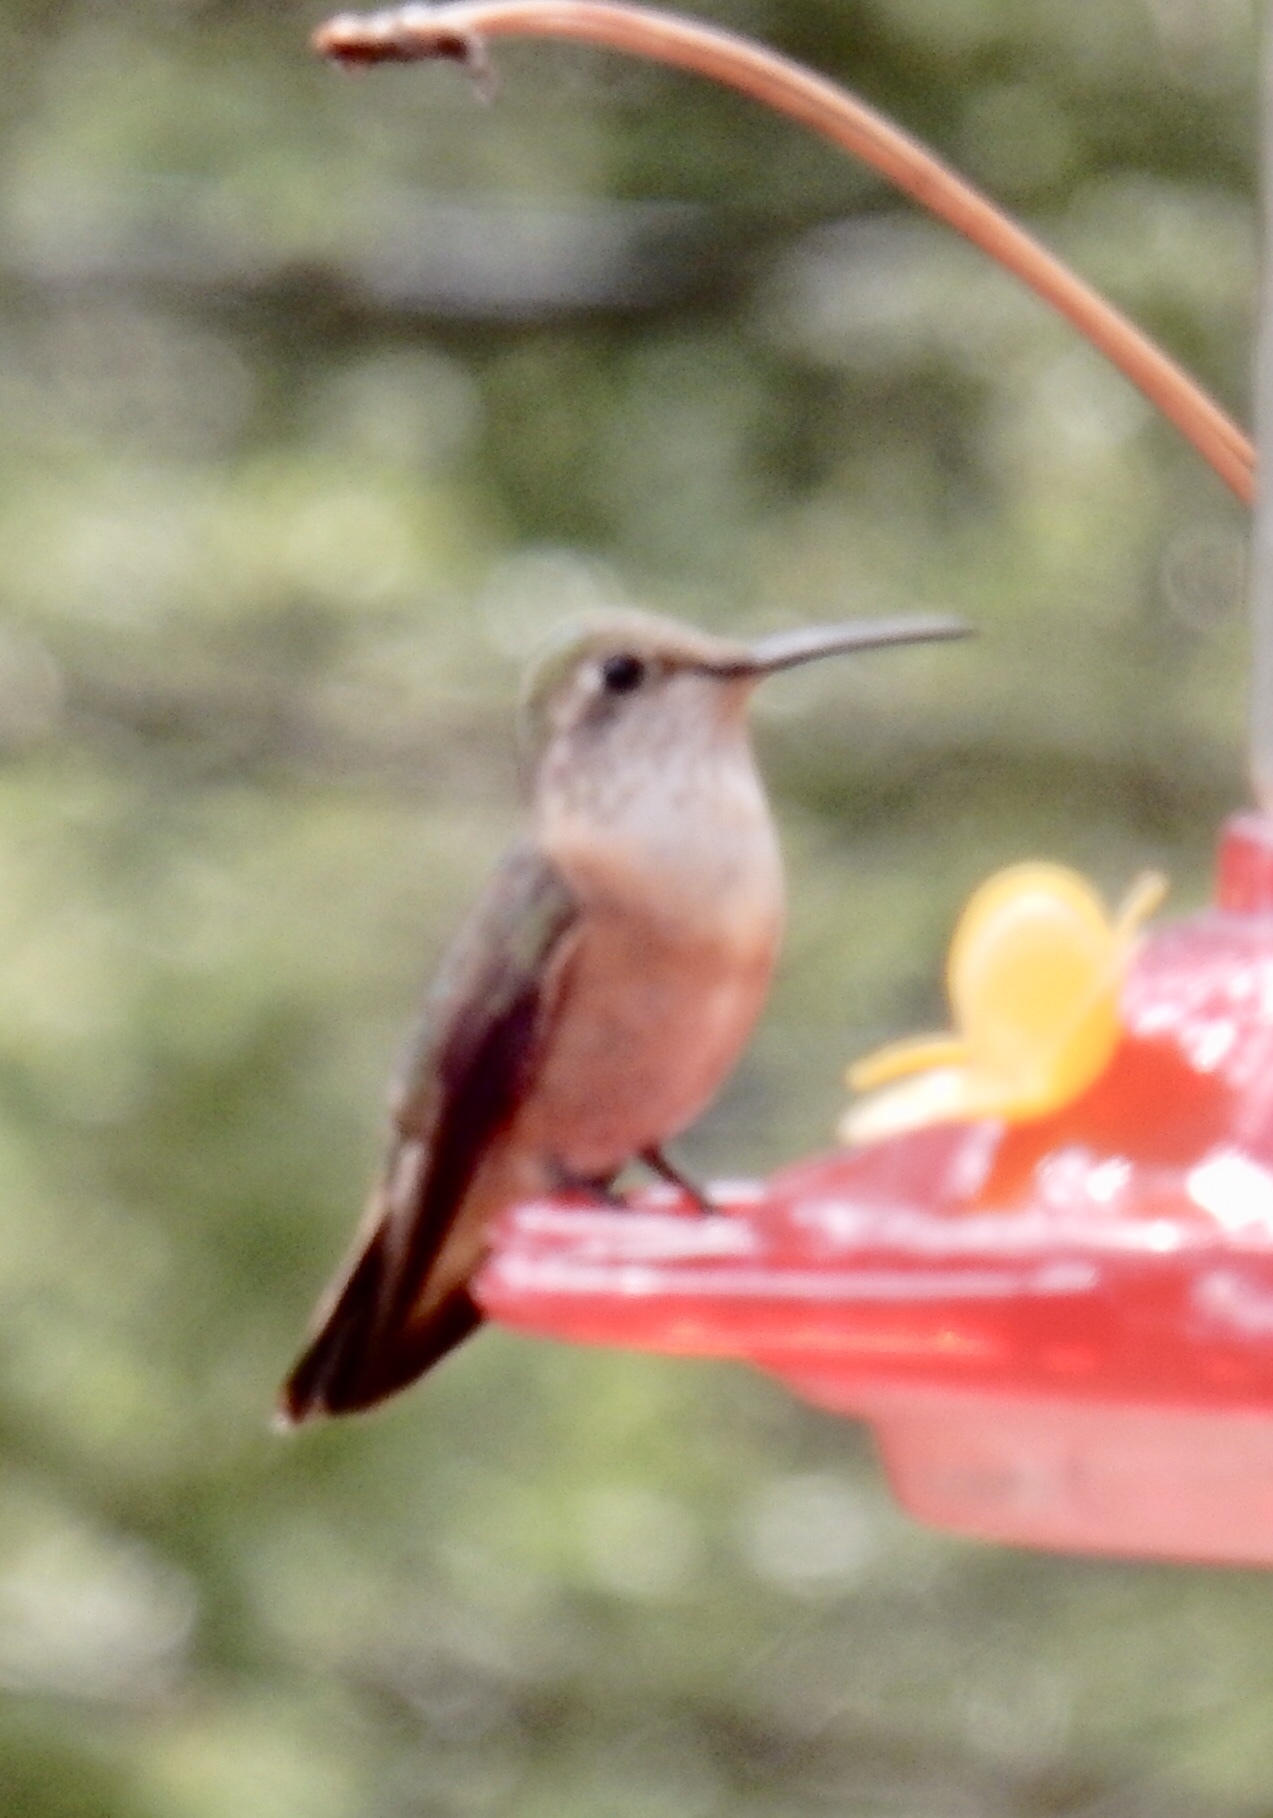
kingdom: Animalia
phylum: Chordata
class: Aves
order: Apodiformes
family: Trochilidae
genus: Selasphorus
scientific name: Selasphorus platycercus
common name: Broad-tailed hummingbird
